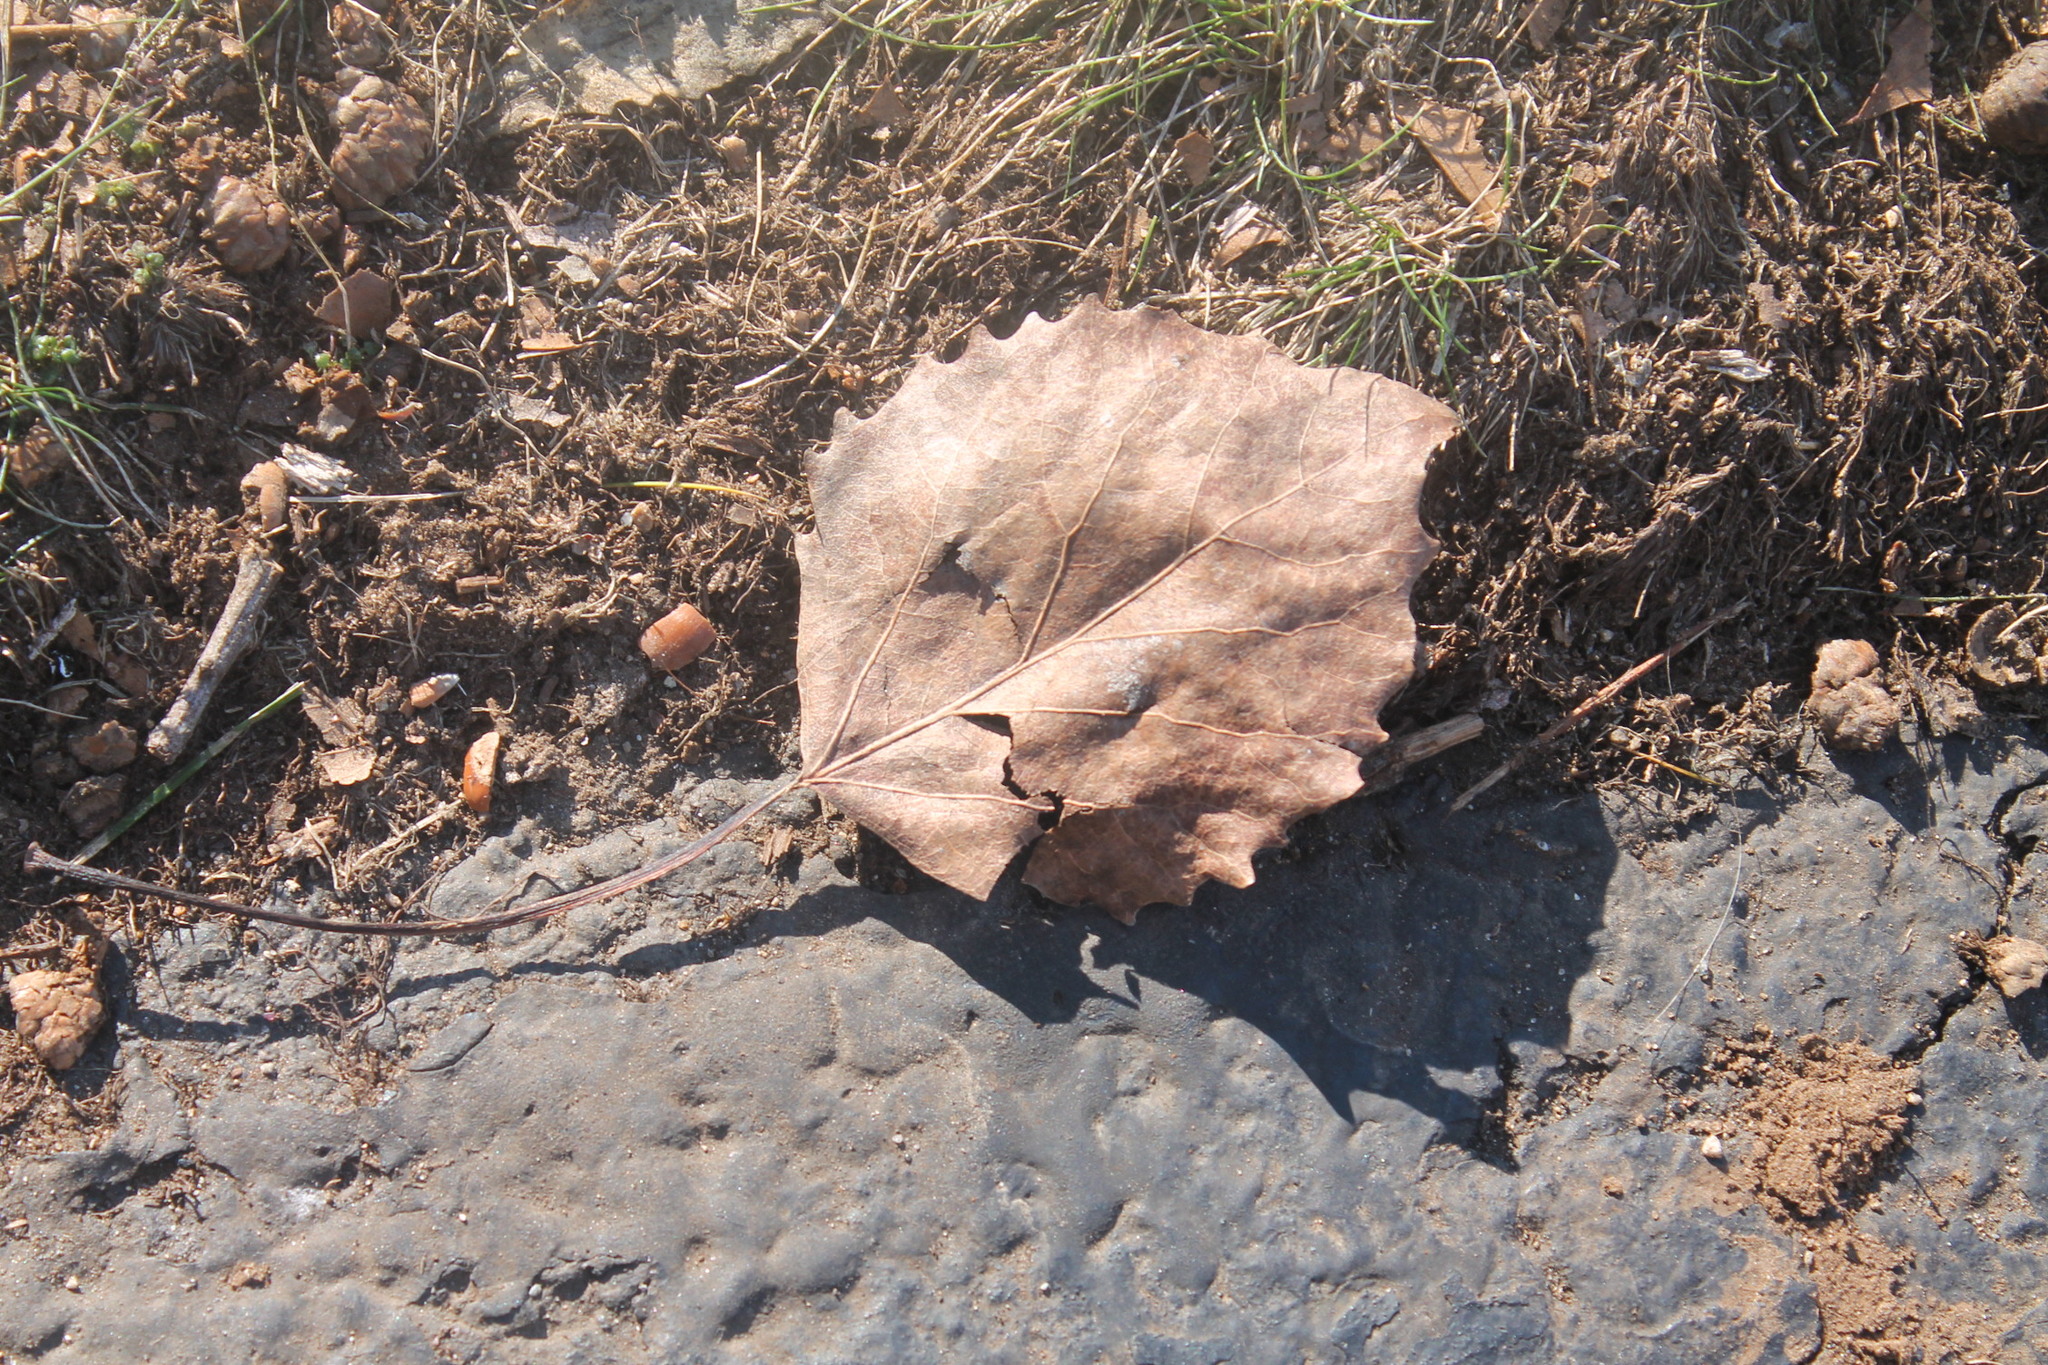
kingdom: Plantae
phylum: Tracheophyta
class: Magnoliopsida
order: Malpighiales
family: Salicaceae
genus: Populus
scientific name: Populus grandidentata
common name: Bigtooth aspen
